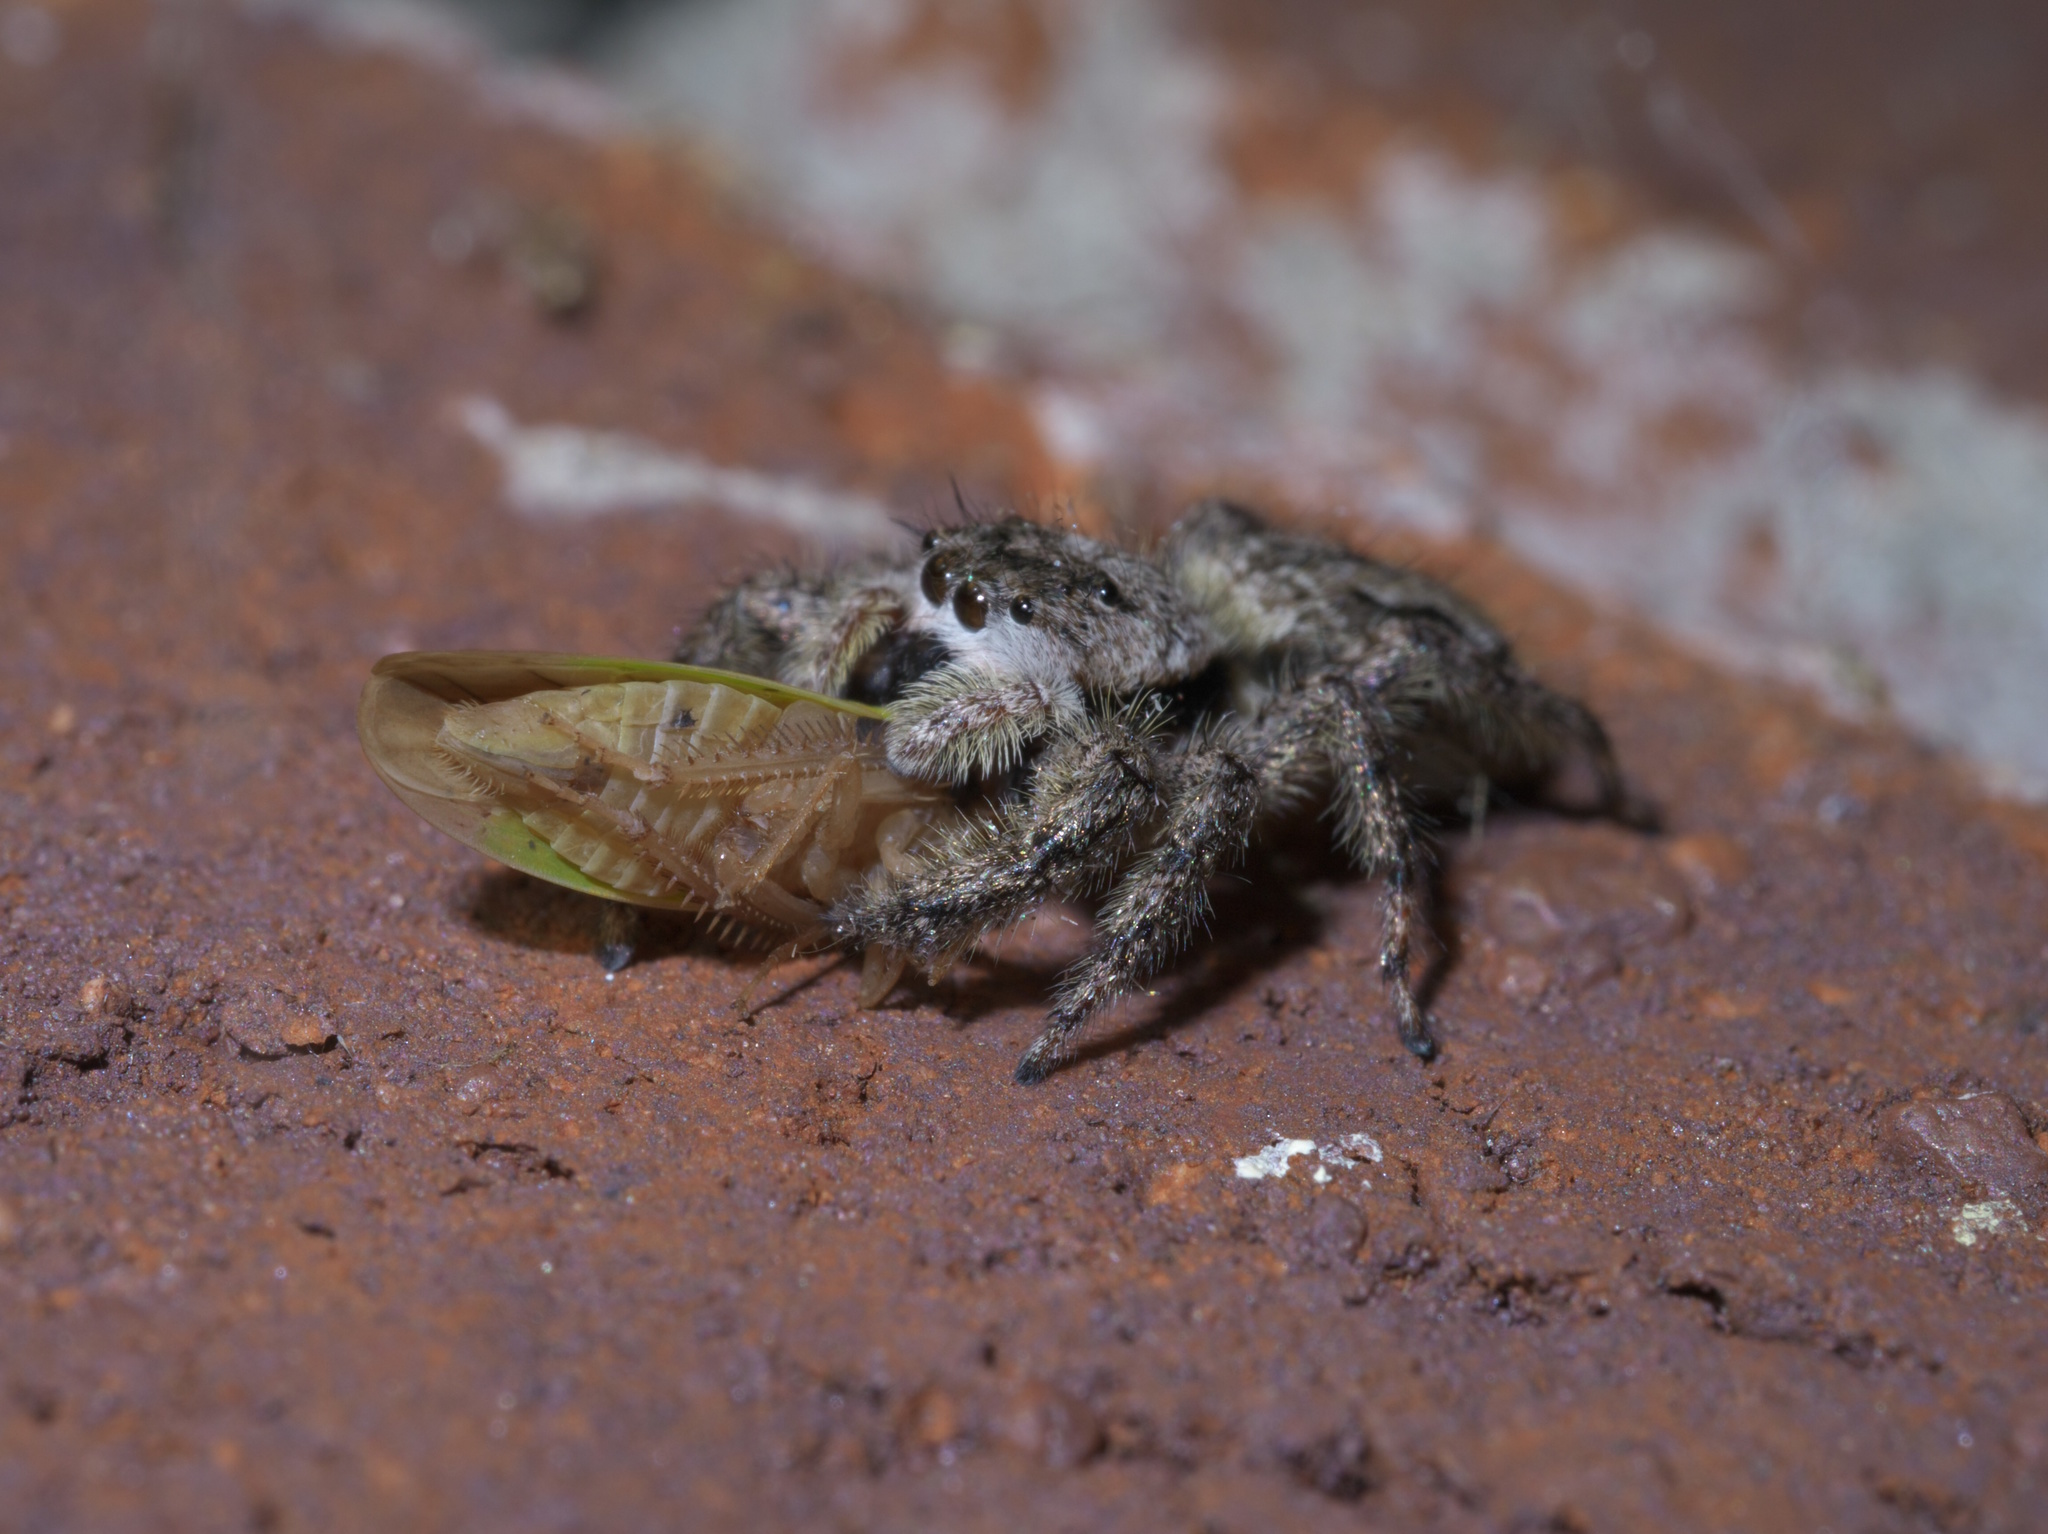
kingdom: Animalia
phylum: Arthropoda
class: Arachnida
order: Araneae
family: Salticidae
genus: Platycryptus
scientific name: Platycryptus undatus
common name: Tan jumping spider
